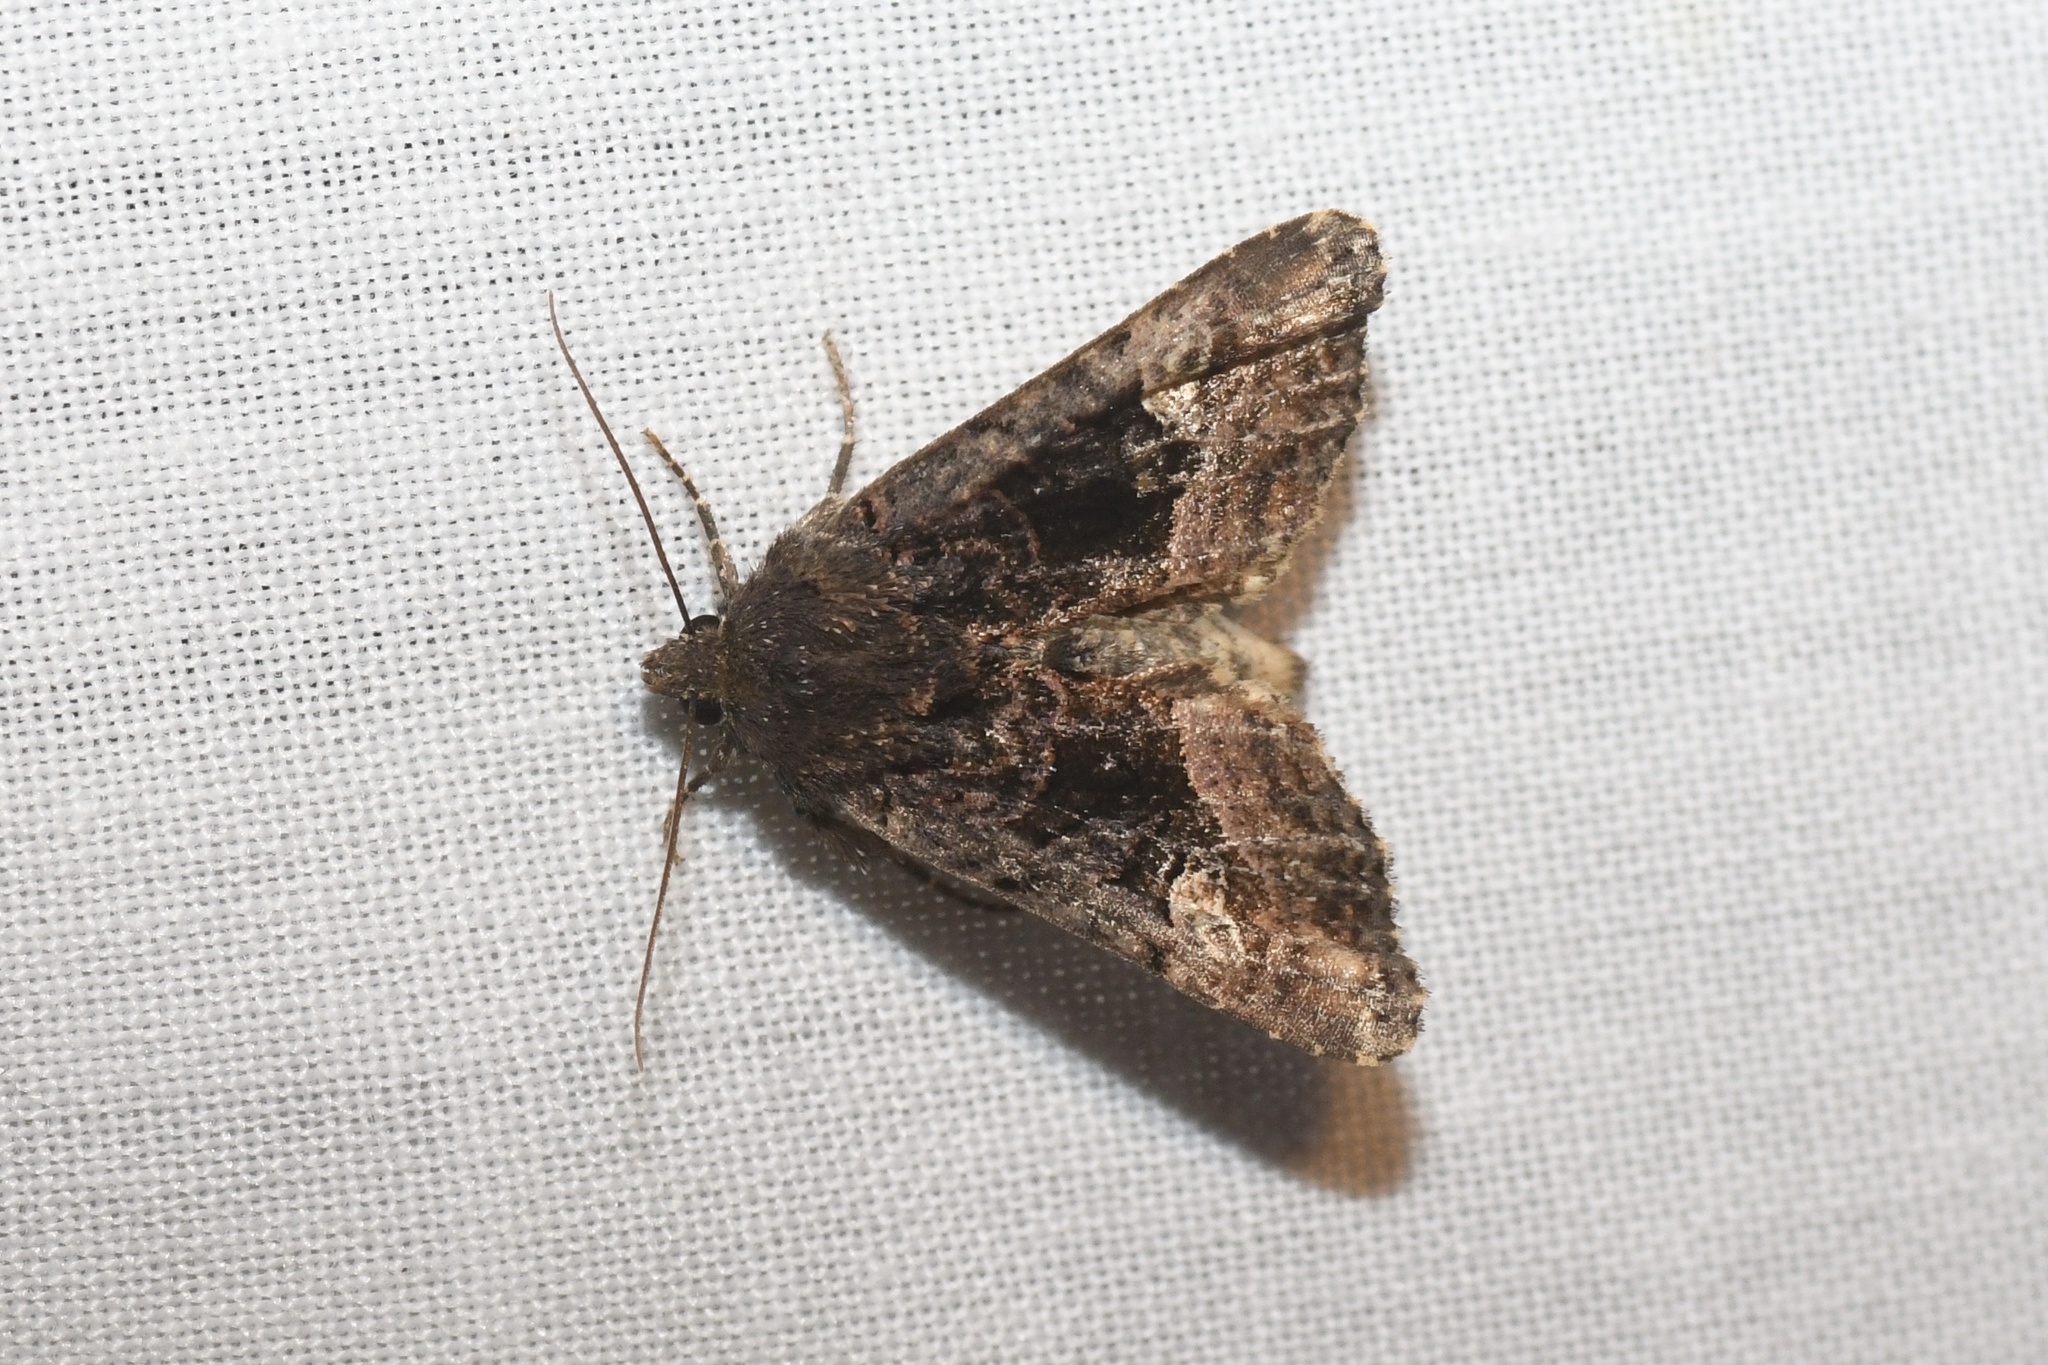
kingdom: Animalia
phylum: Arthropoda
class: Insecta
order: Lepidoptera
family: Noctuidae
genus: Euplexia
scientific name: Euplexia benesimilis
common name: American angle shades
